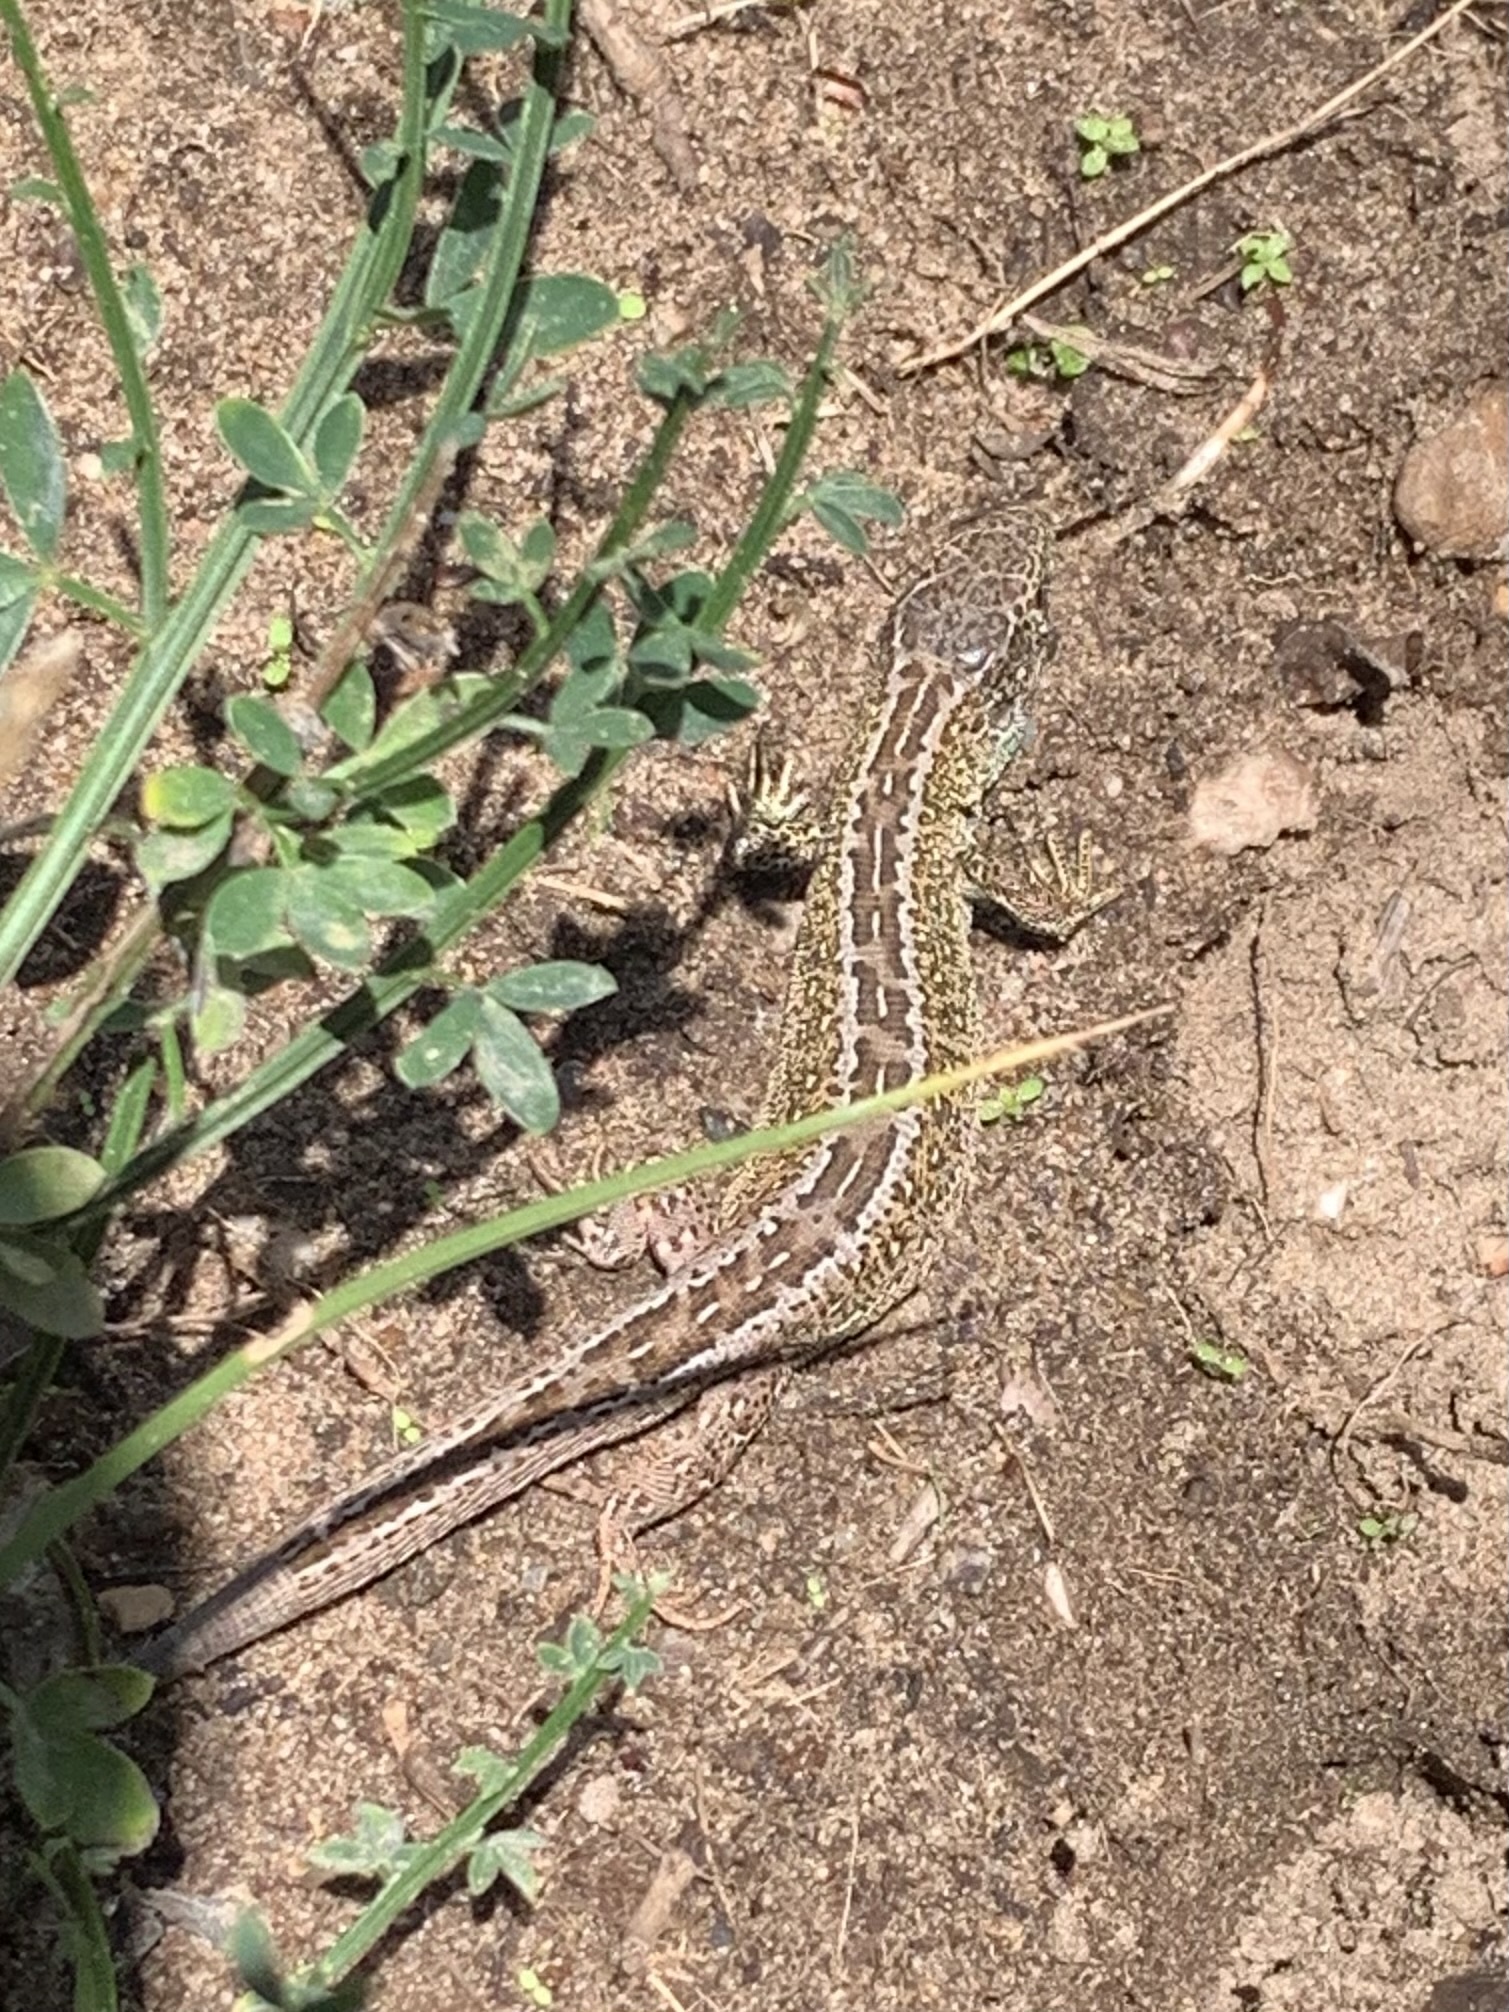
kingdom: Animalia
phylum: Chordata
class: Squamata
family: Lacertidae
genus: Lacerta
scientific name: Lacerta agilis
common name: Sand lizard
